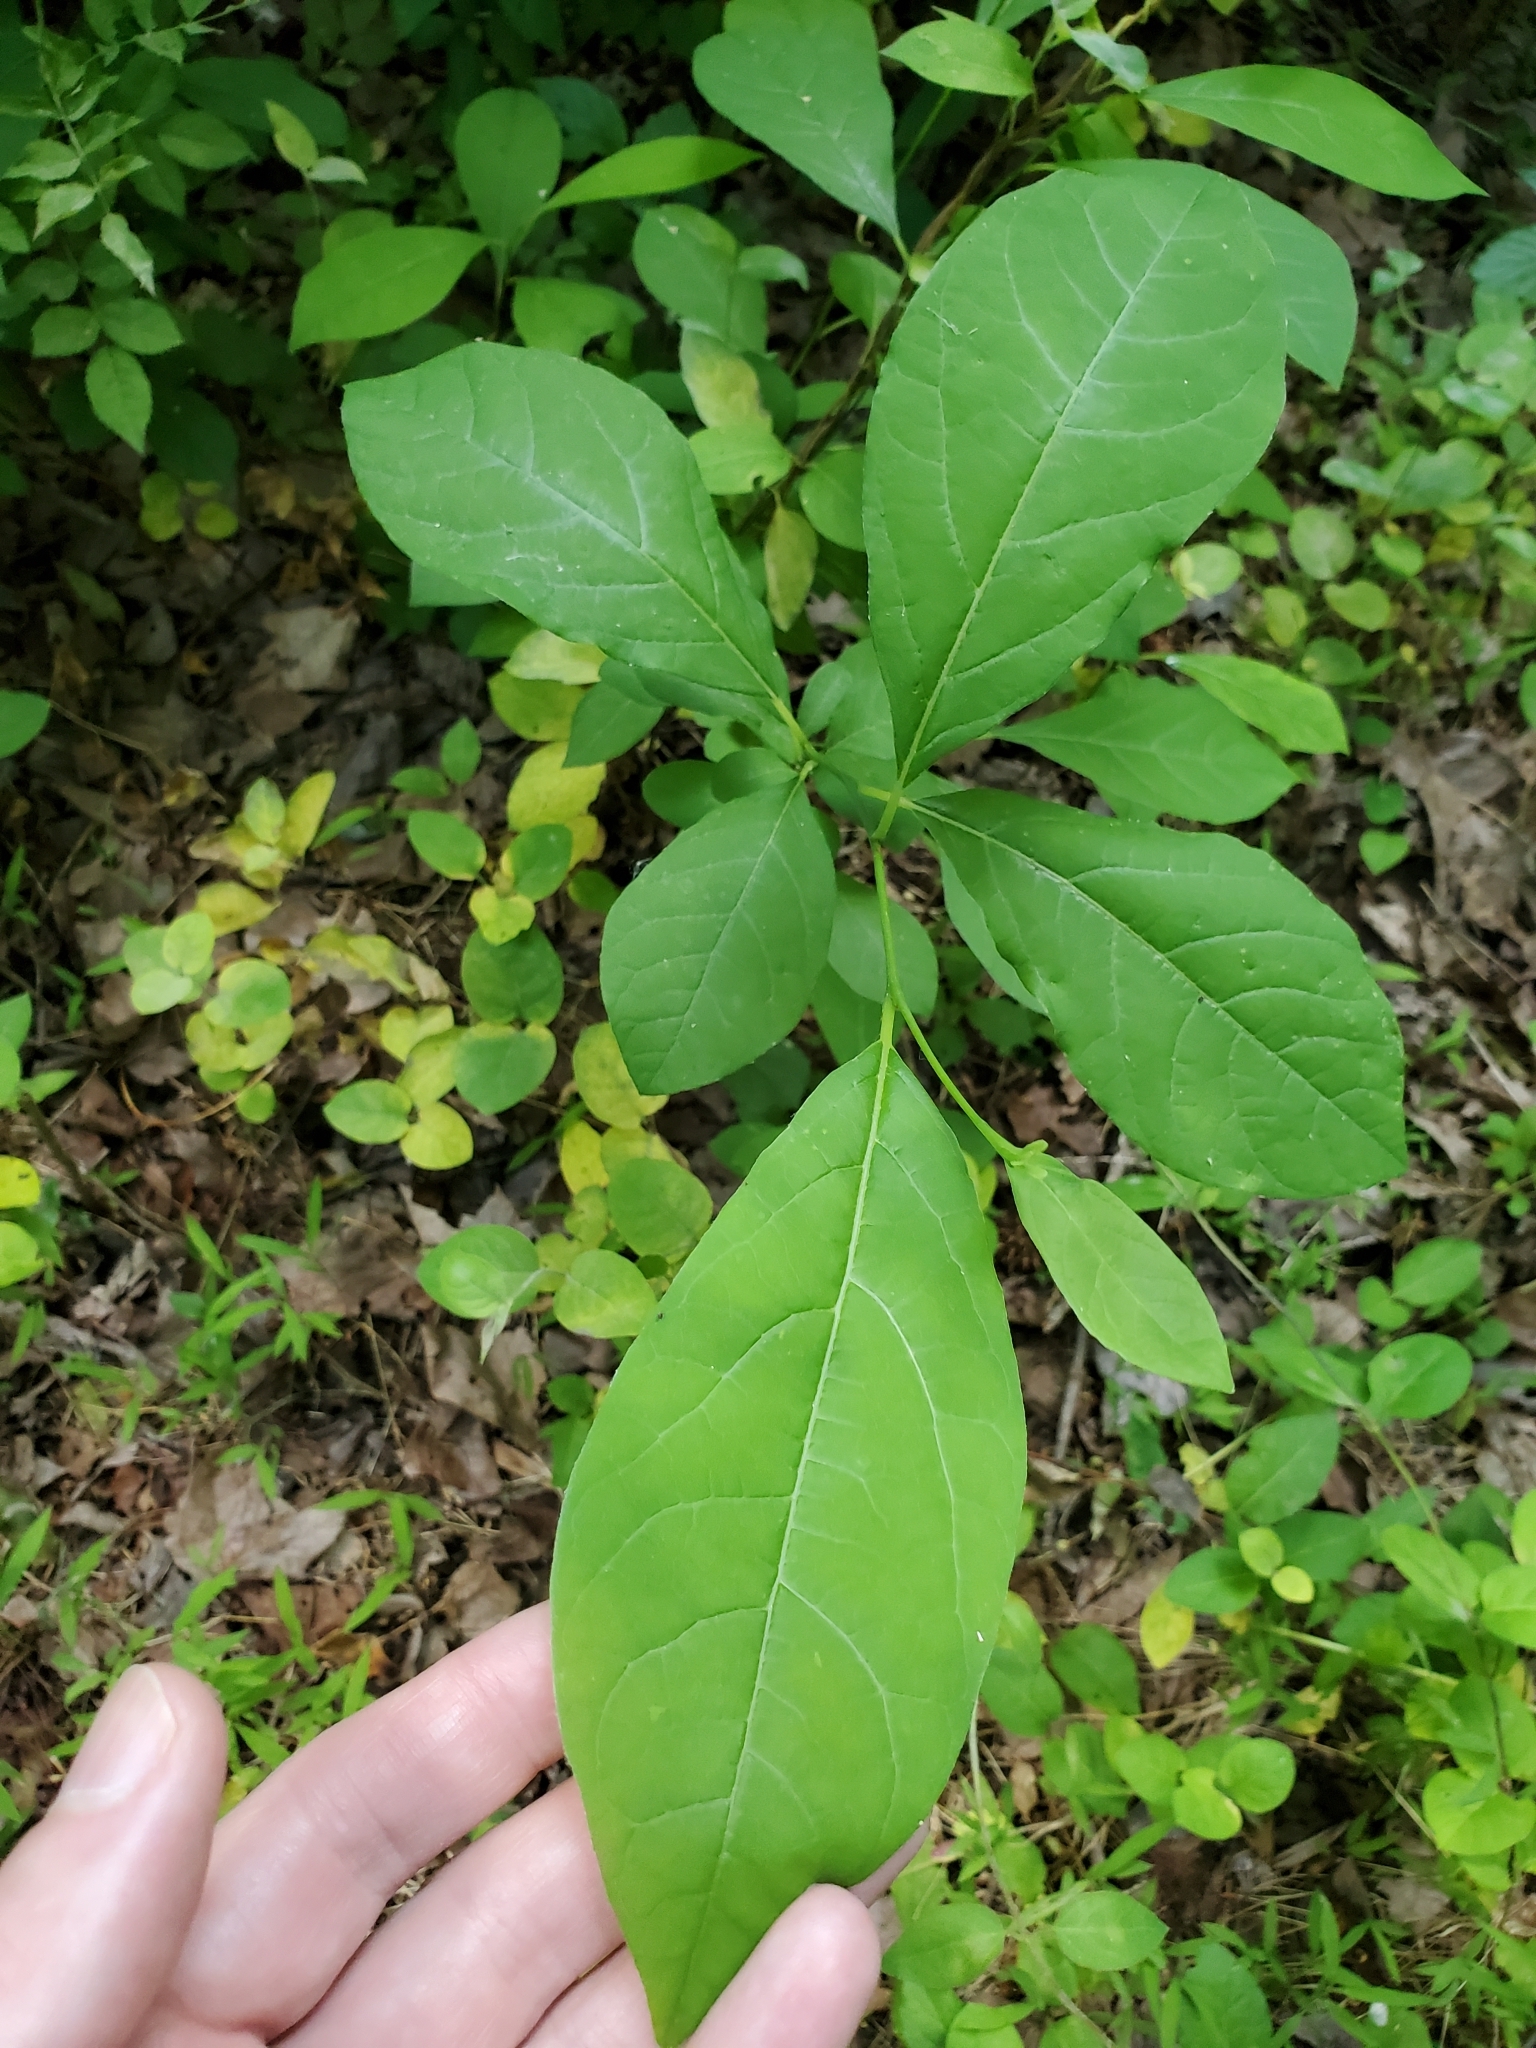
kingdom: Plantae
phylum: Tracheophyta
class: Magnoliopsida
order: Laurales
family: Lauraceae
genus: Lindera
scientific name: Lindera benzoin
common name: Spicebush
